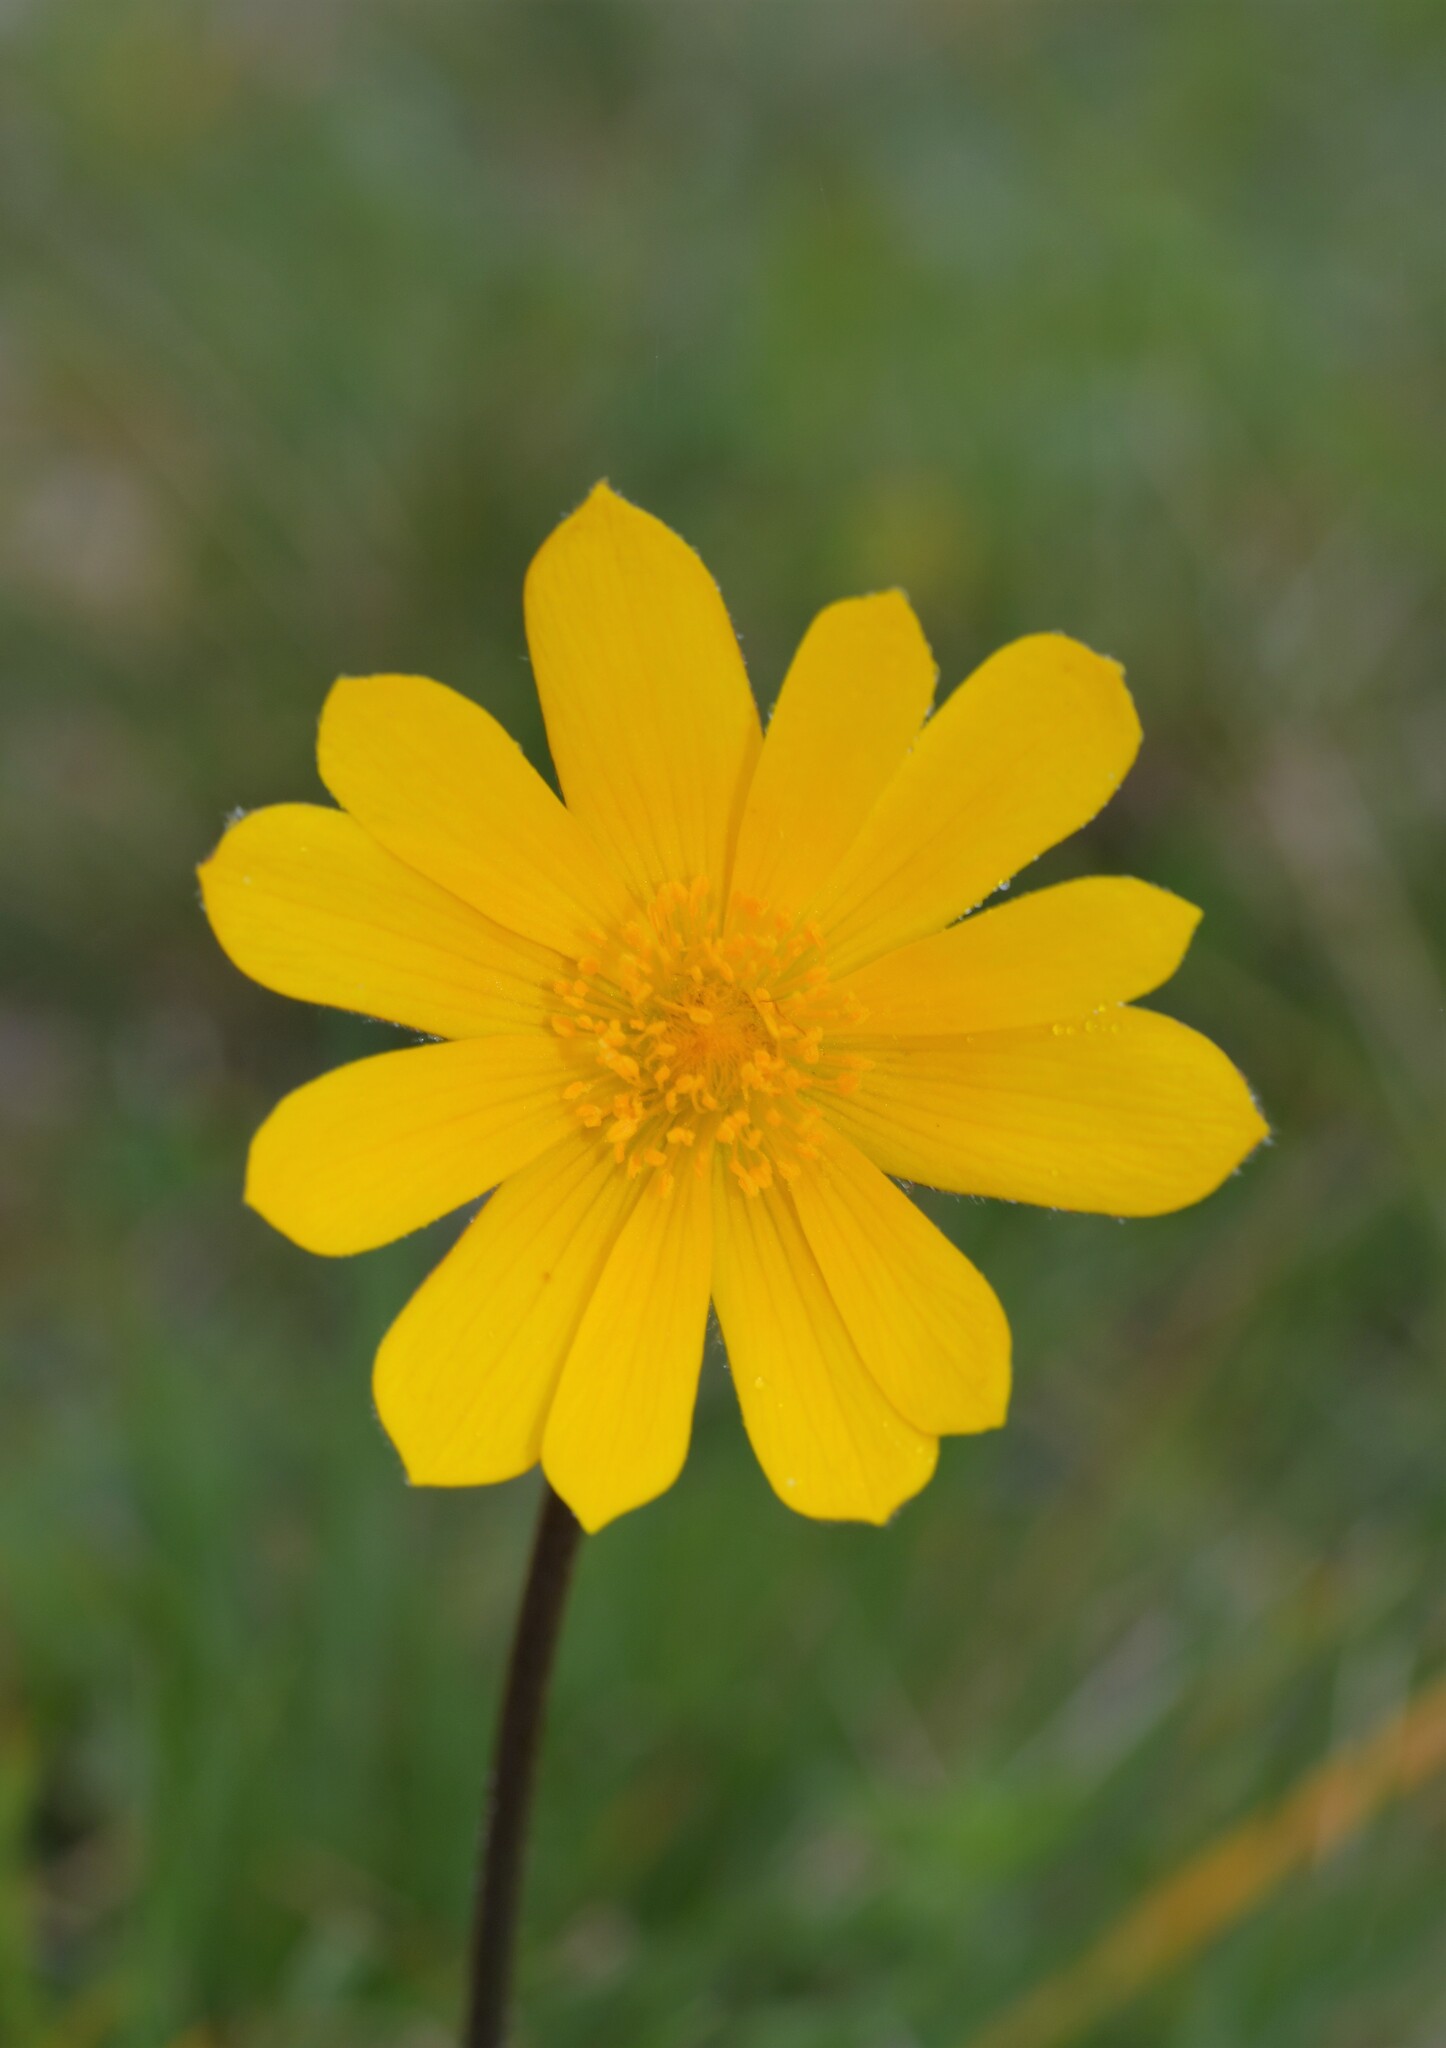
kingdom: Plantae
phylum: Tracheophyta
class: Magnoliopsida
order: Ranunculales
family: Ranunculaceae
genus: Anemone
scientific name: Anemone palmata
